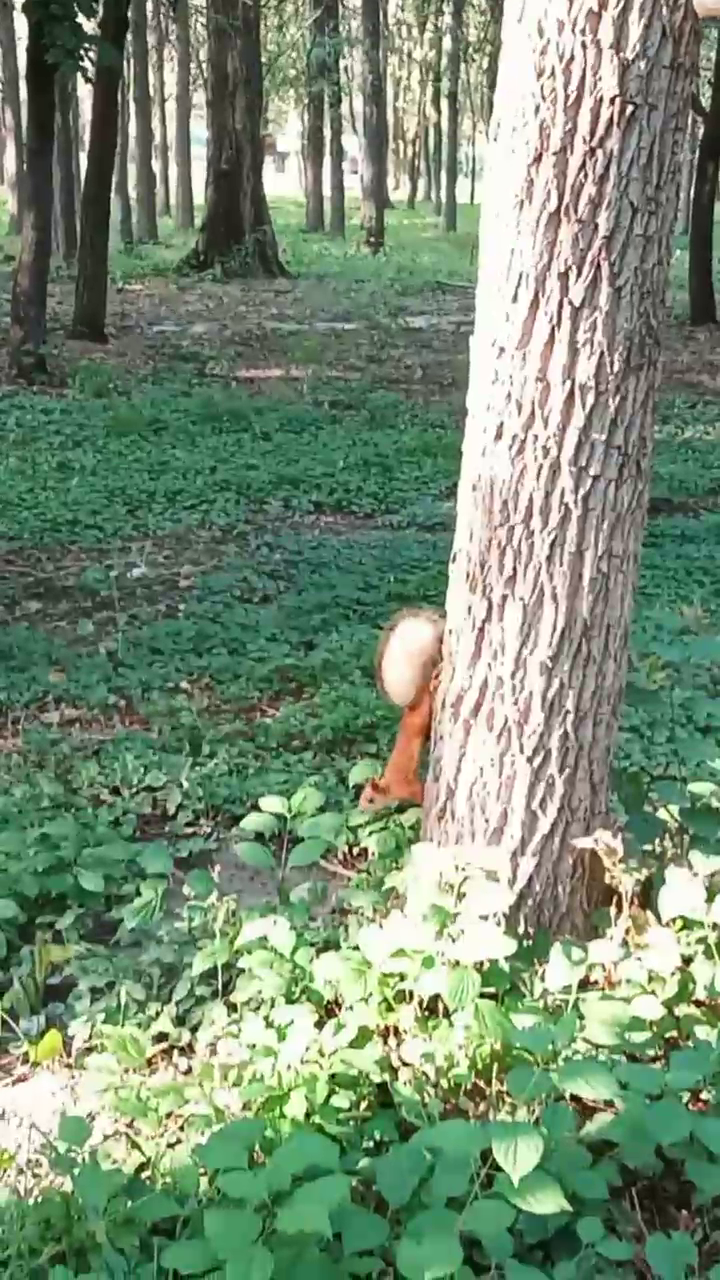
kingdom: Animalia
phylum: Chordata
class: Mammalia
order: Rodentia
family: Sciuridae
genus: Sciurus
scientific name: Sciurus vulgaris
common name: Eurasian red squirrel
